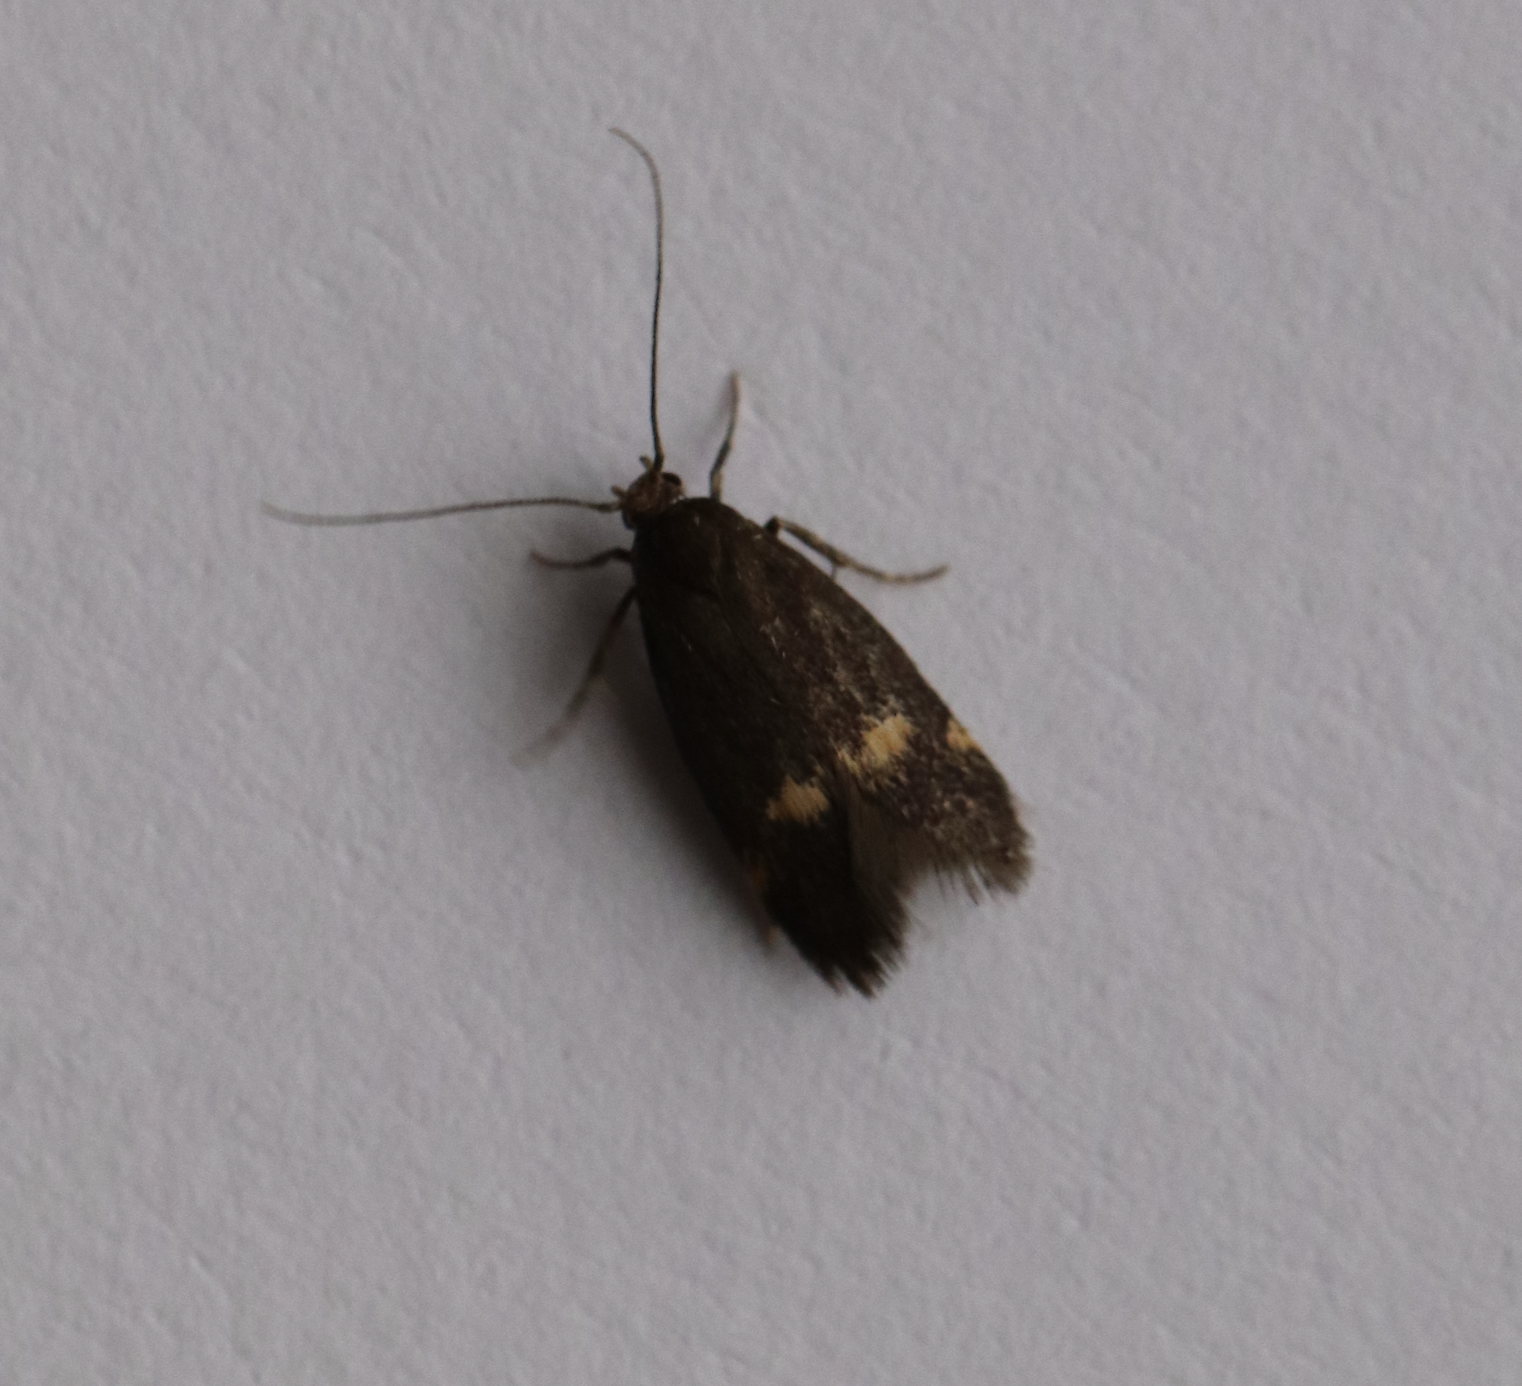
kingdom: Animalia
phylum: Arthropoda
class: Insecta
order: Lepidoptera
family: Oecophoridae
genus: Borkhausenia
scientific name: Borkhausenia minutella
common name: Thatch tubic
